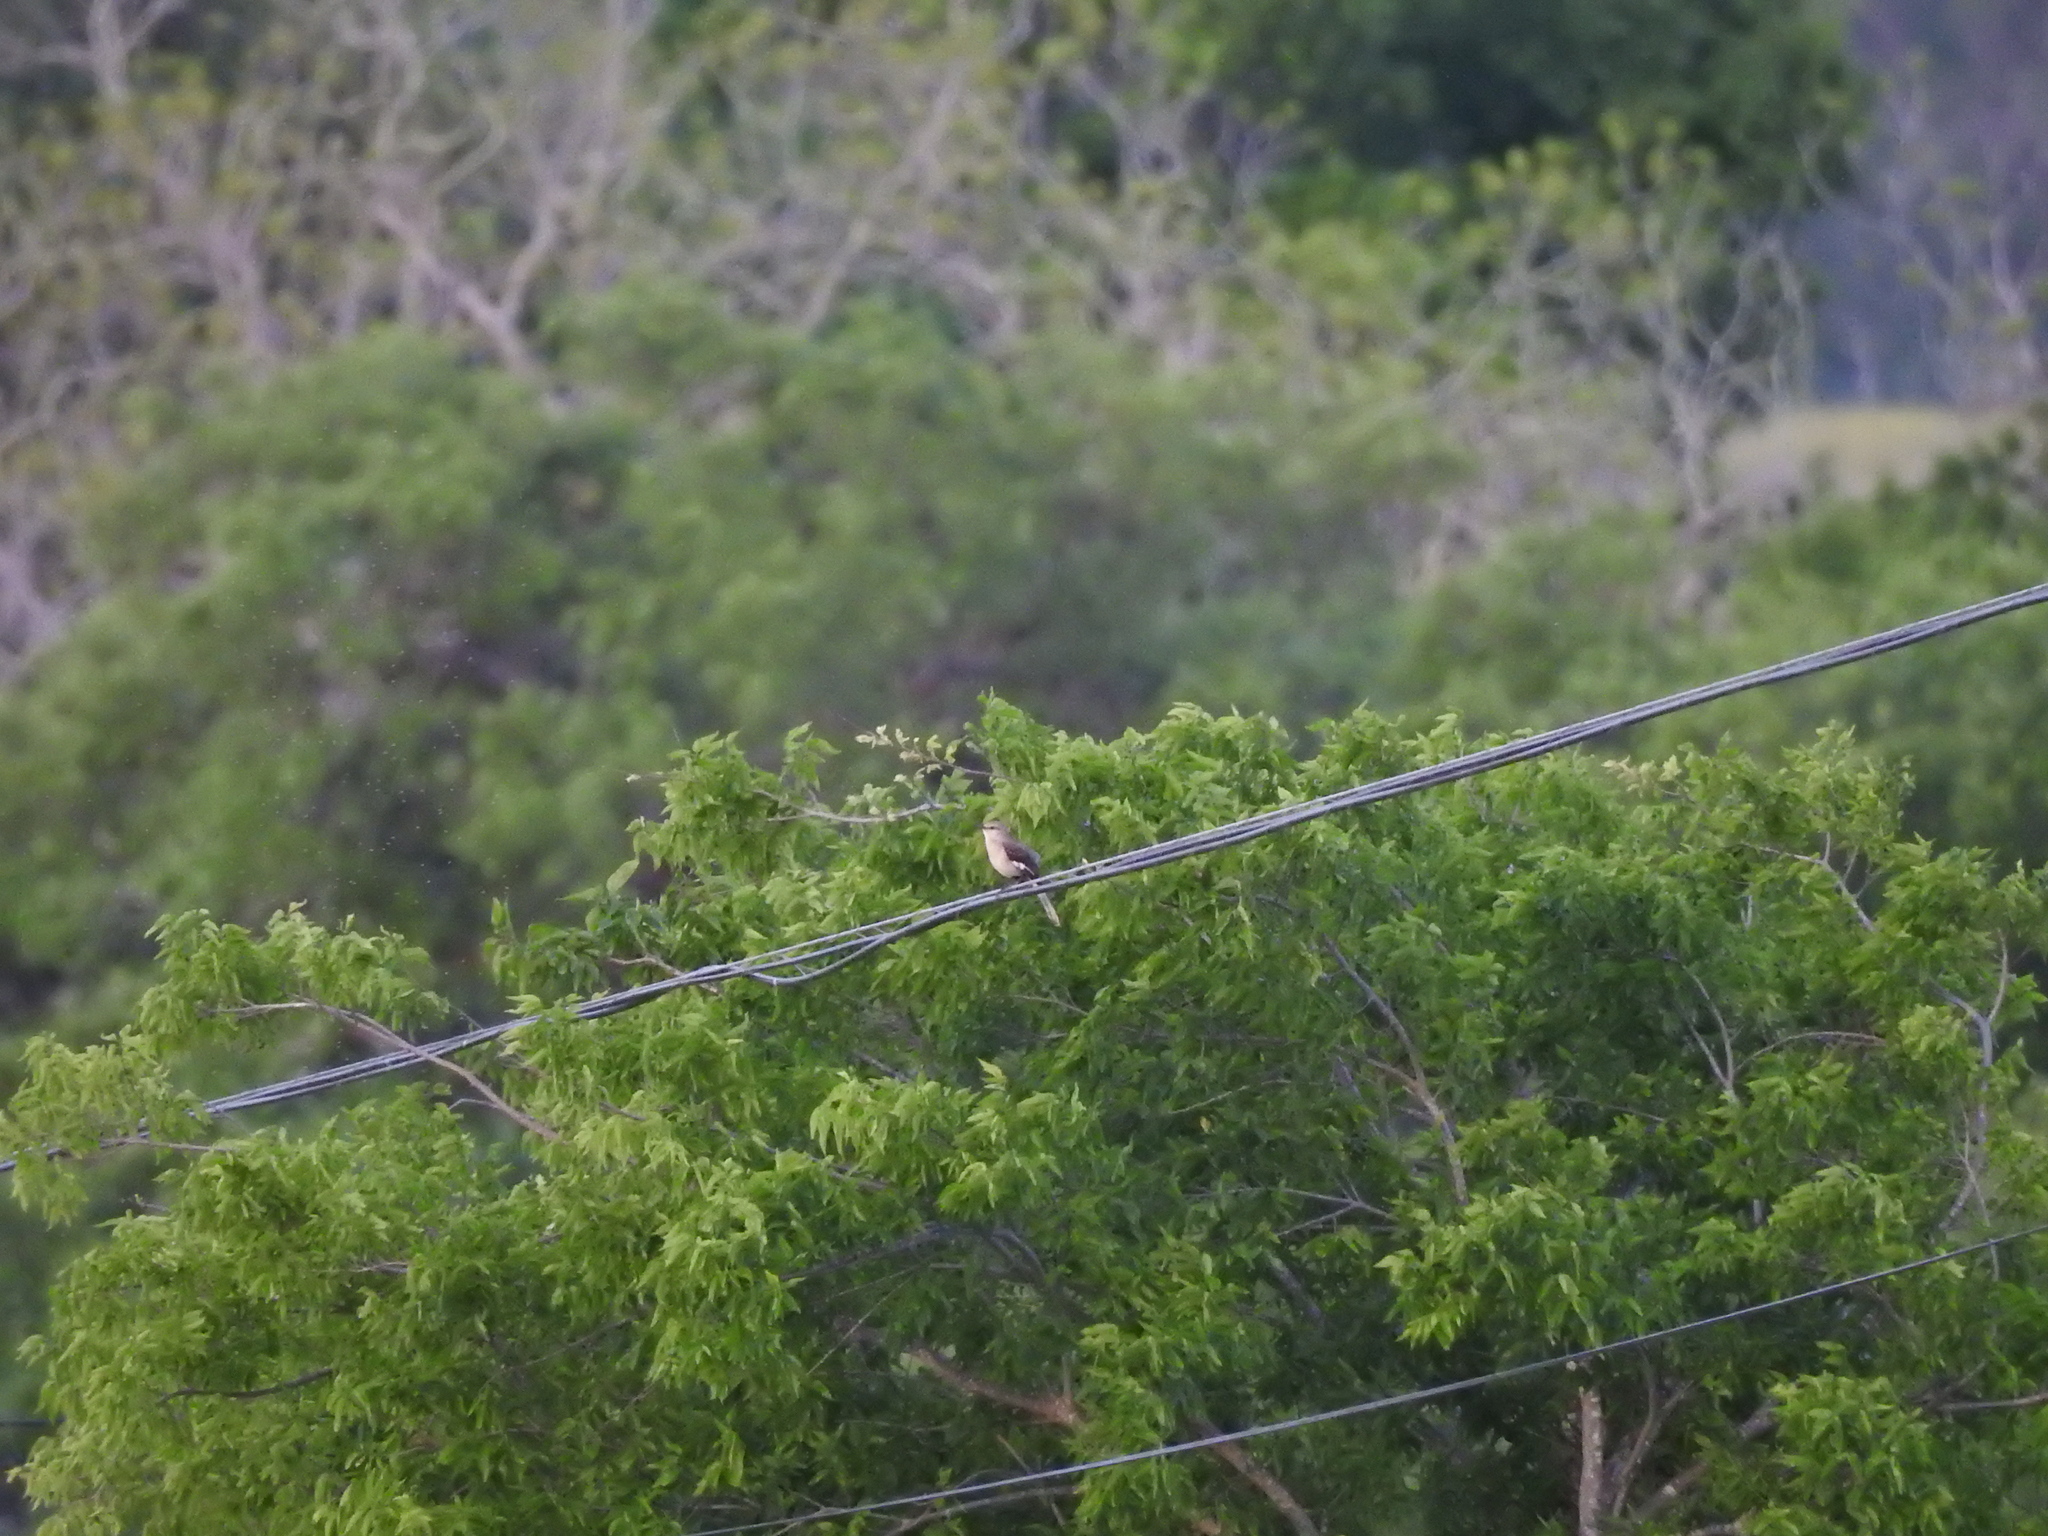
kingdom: Animalia
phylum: Chordata
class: Aves
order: Passeriformes
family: Mimidae
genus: Mimus
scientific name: Mimus polyglottos
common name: Northern mockingbird
